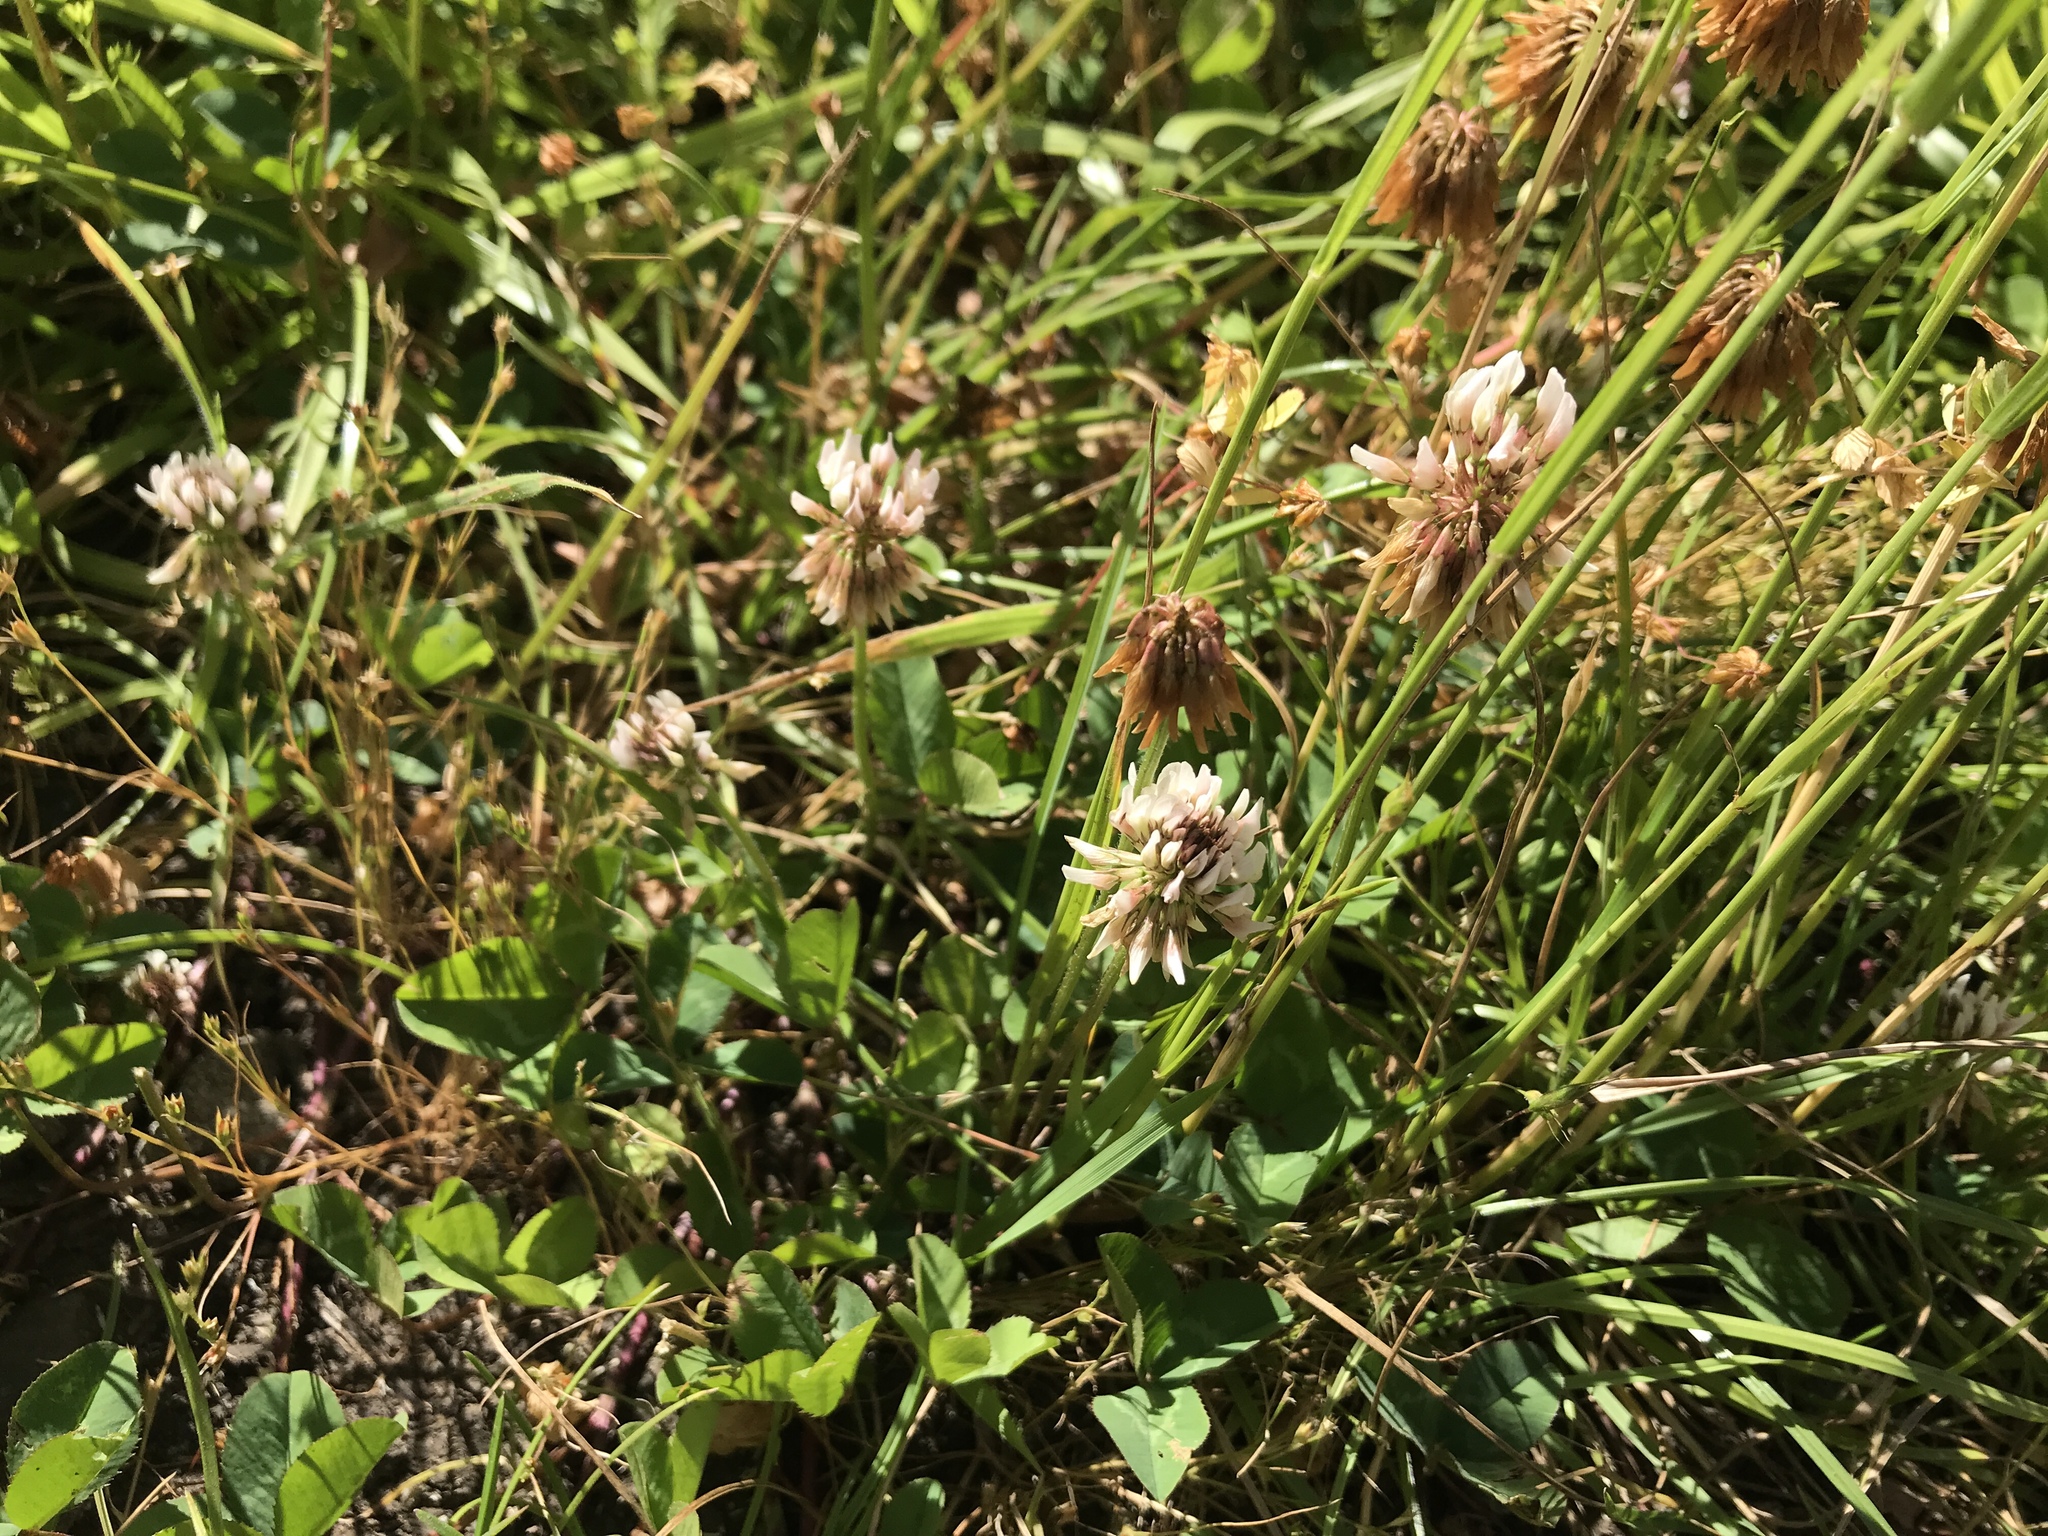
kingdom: Plantae
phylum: Tracheophyta
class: Magnoliopsida
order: Fabales
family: Fabaceae
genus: Trifolium
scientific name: Trifolium repens
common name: White clover
